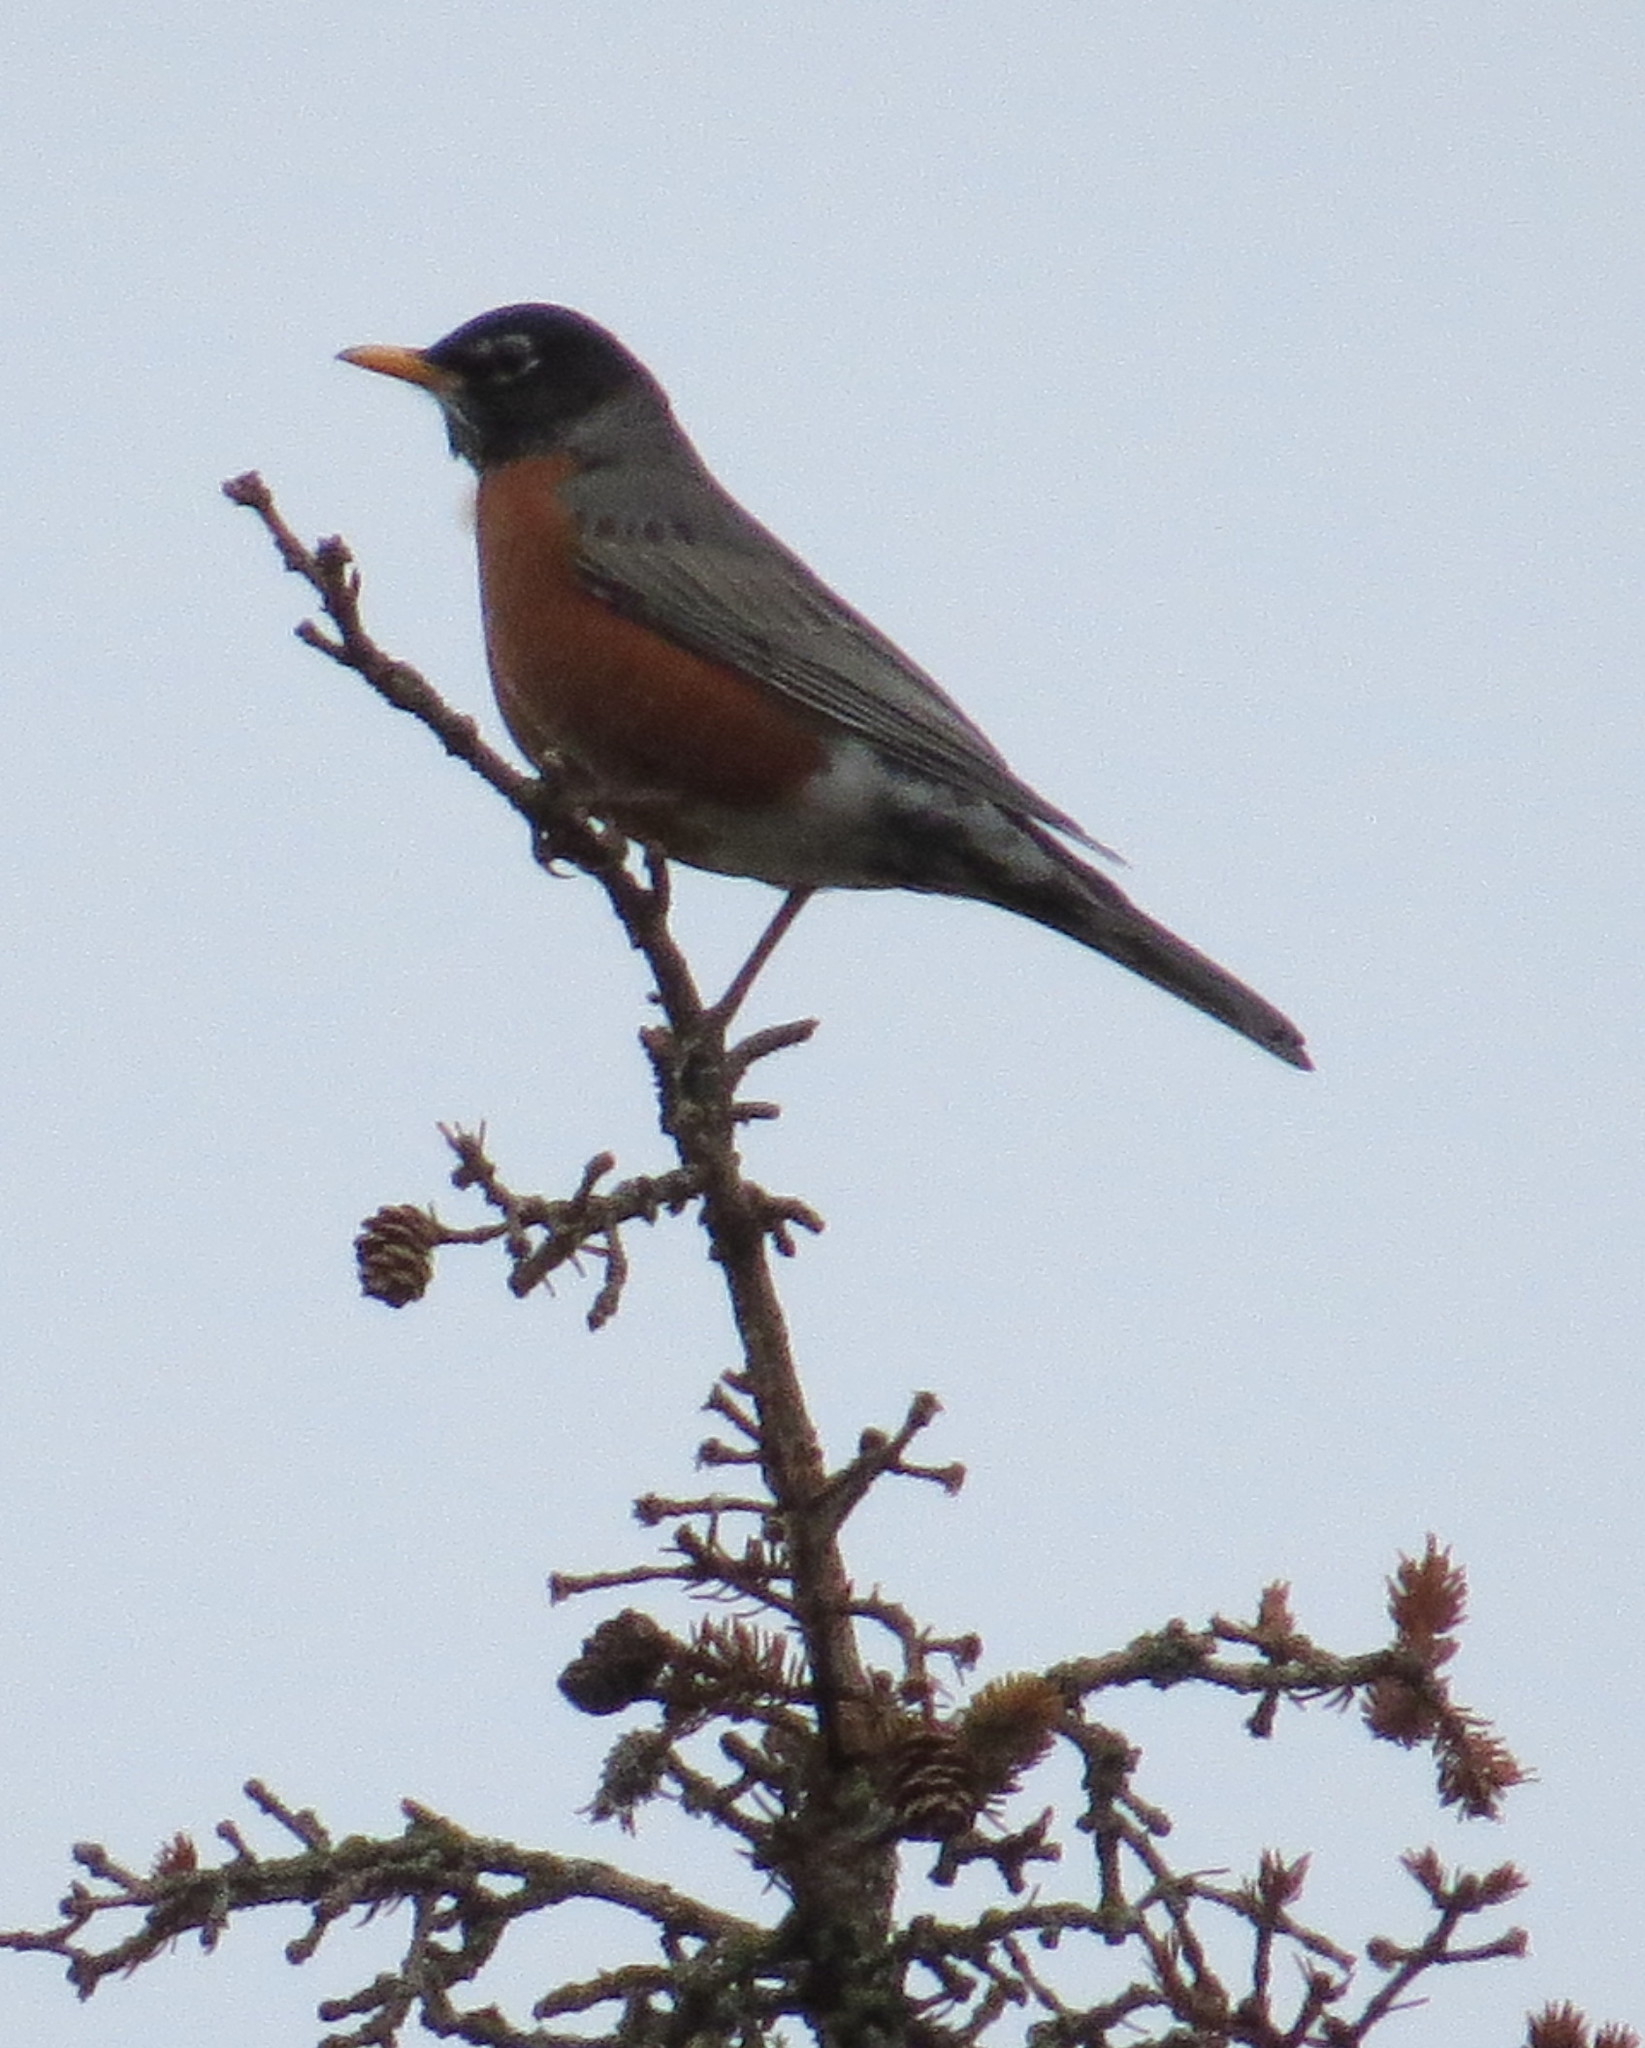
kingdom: Animalia
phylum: Chordata
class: Aves
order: Passeriformes
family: Turdidae
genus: Turdus
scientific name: Turdus migratorius
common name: American robin
